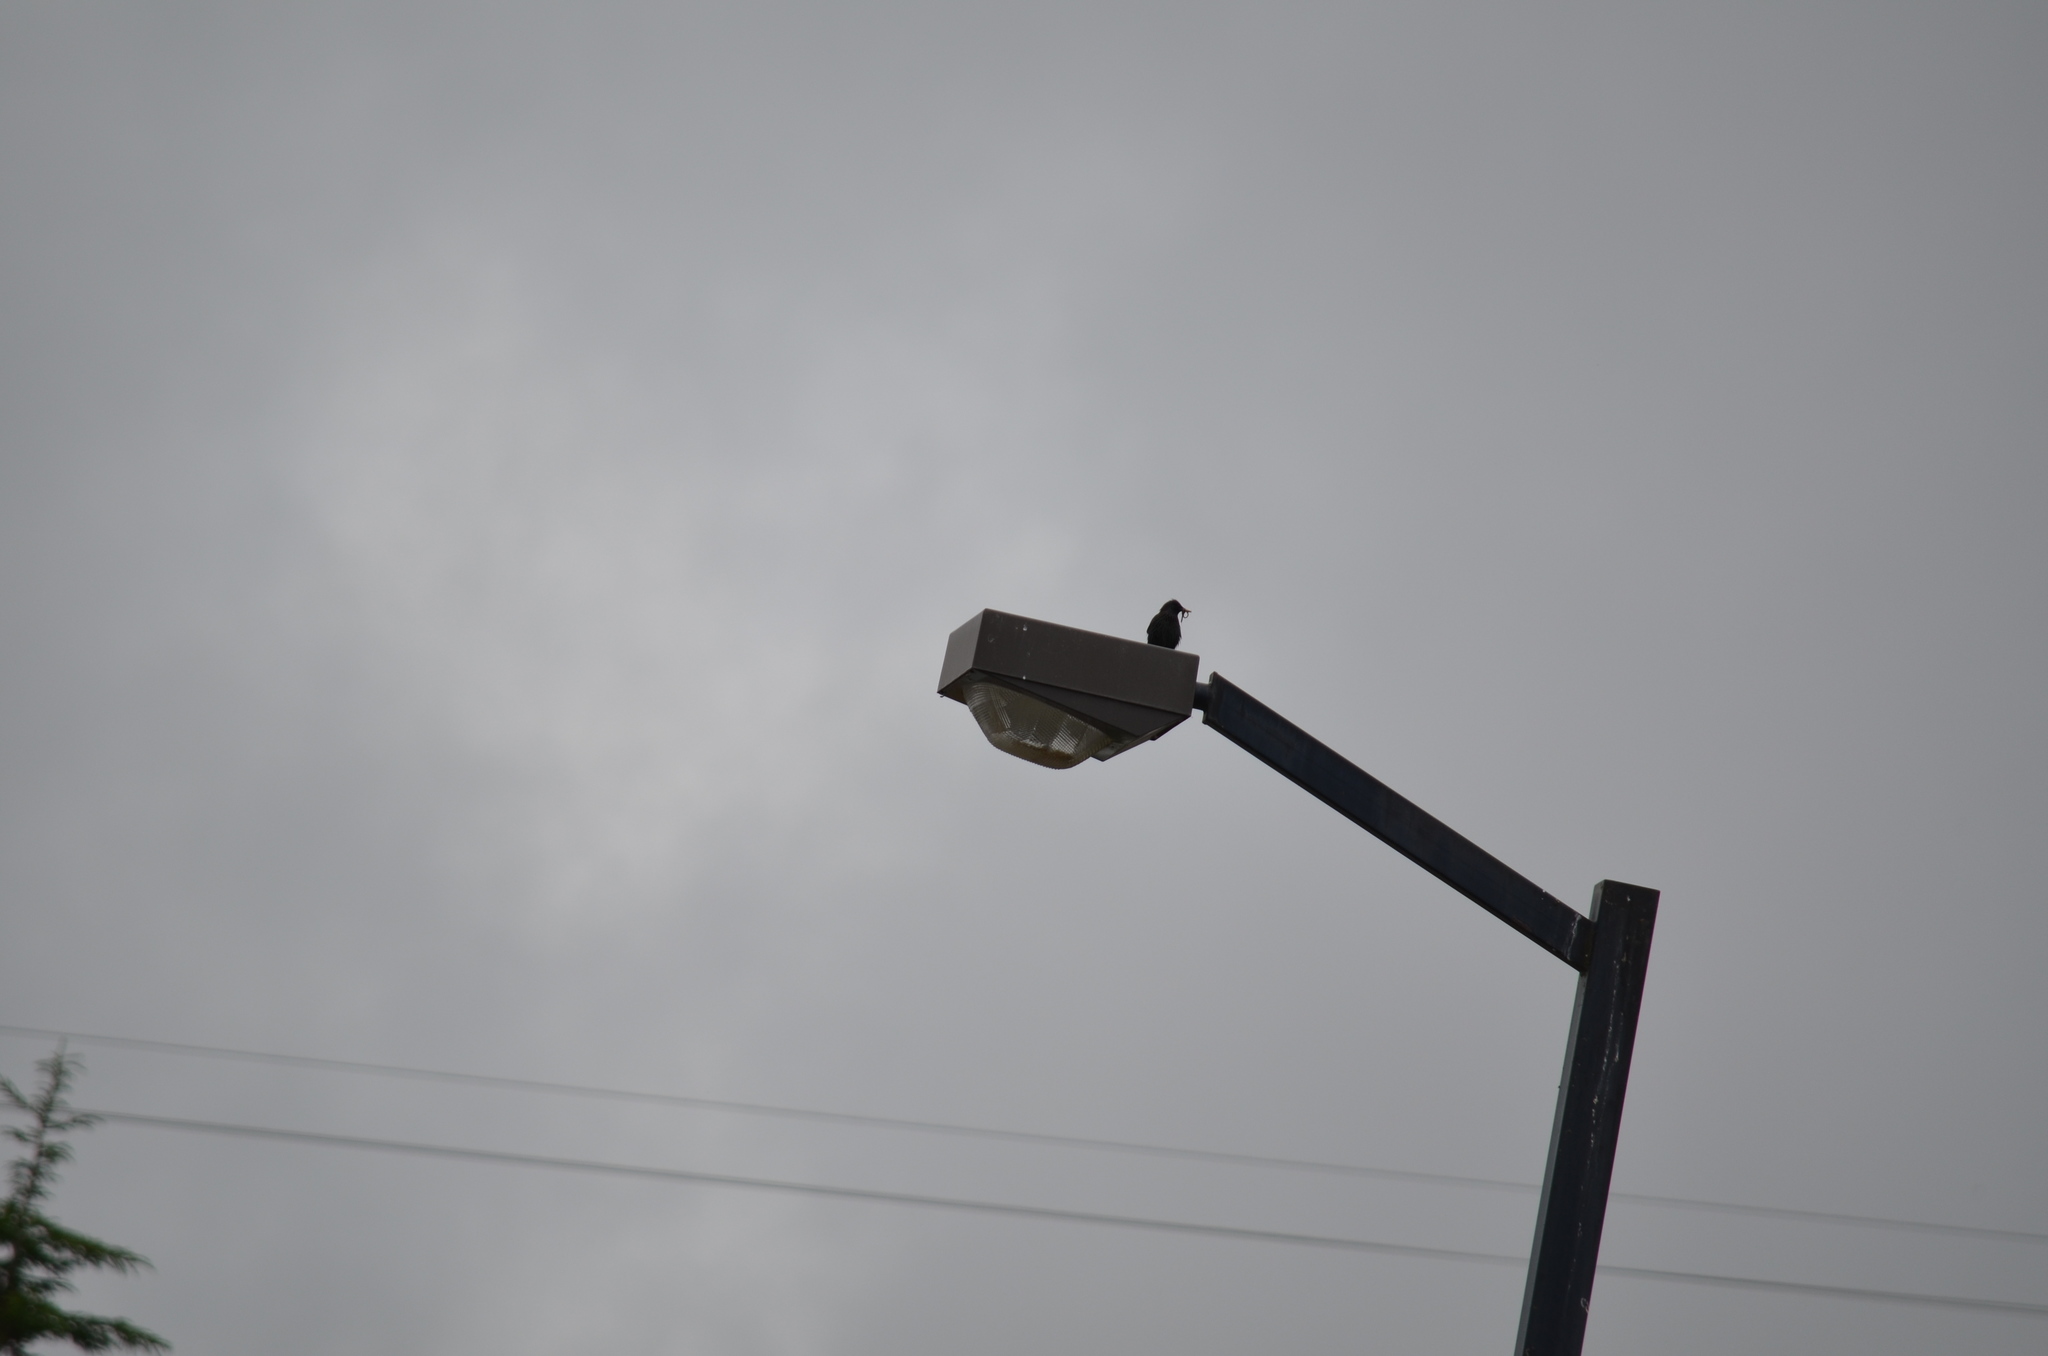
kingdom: Animalia
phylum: Chordata
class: Aves
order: Passeriformes
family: Sturnidae
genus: Sturnus
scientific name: Sturnus vulgaris
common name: Common starling
